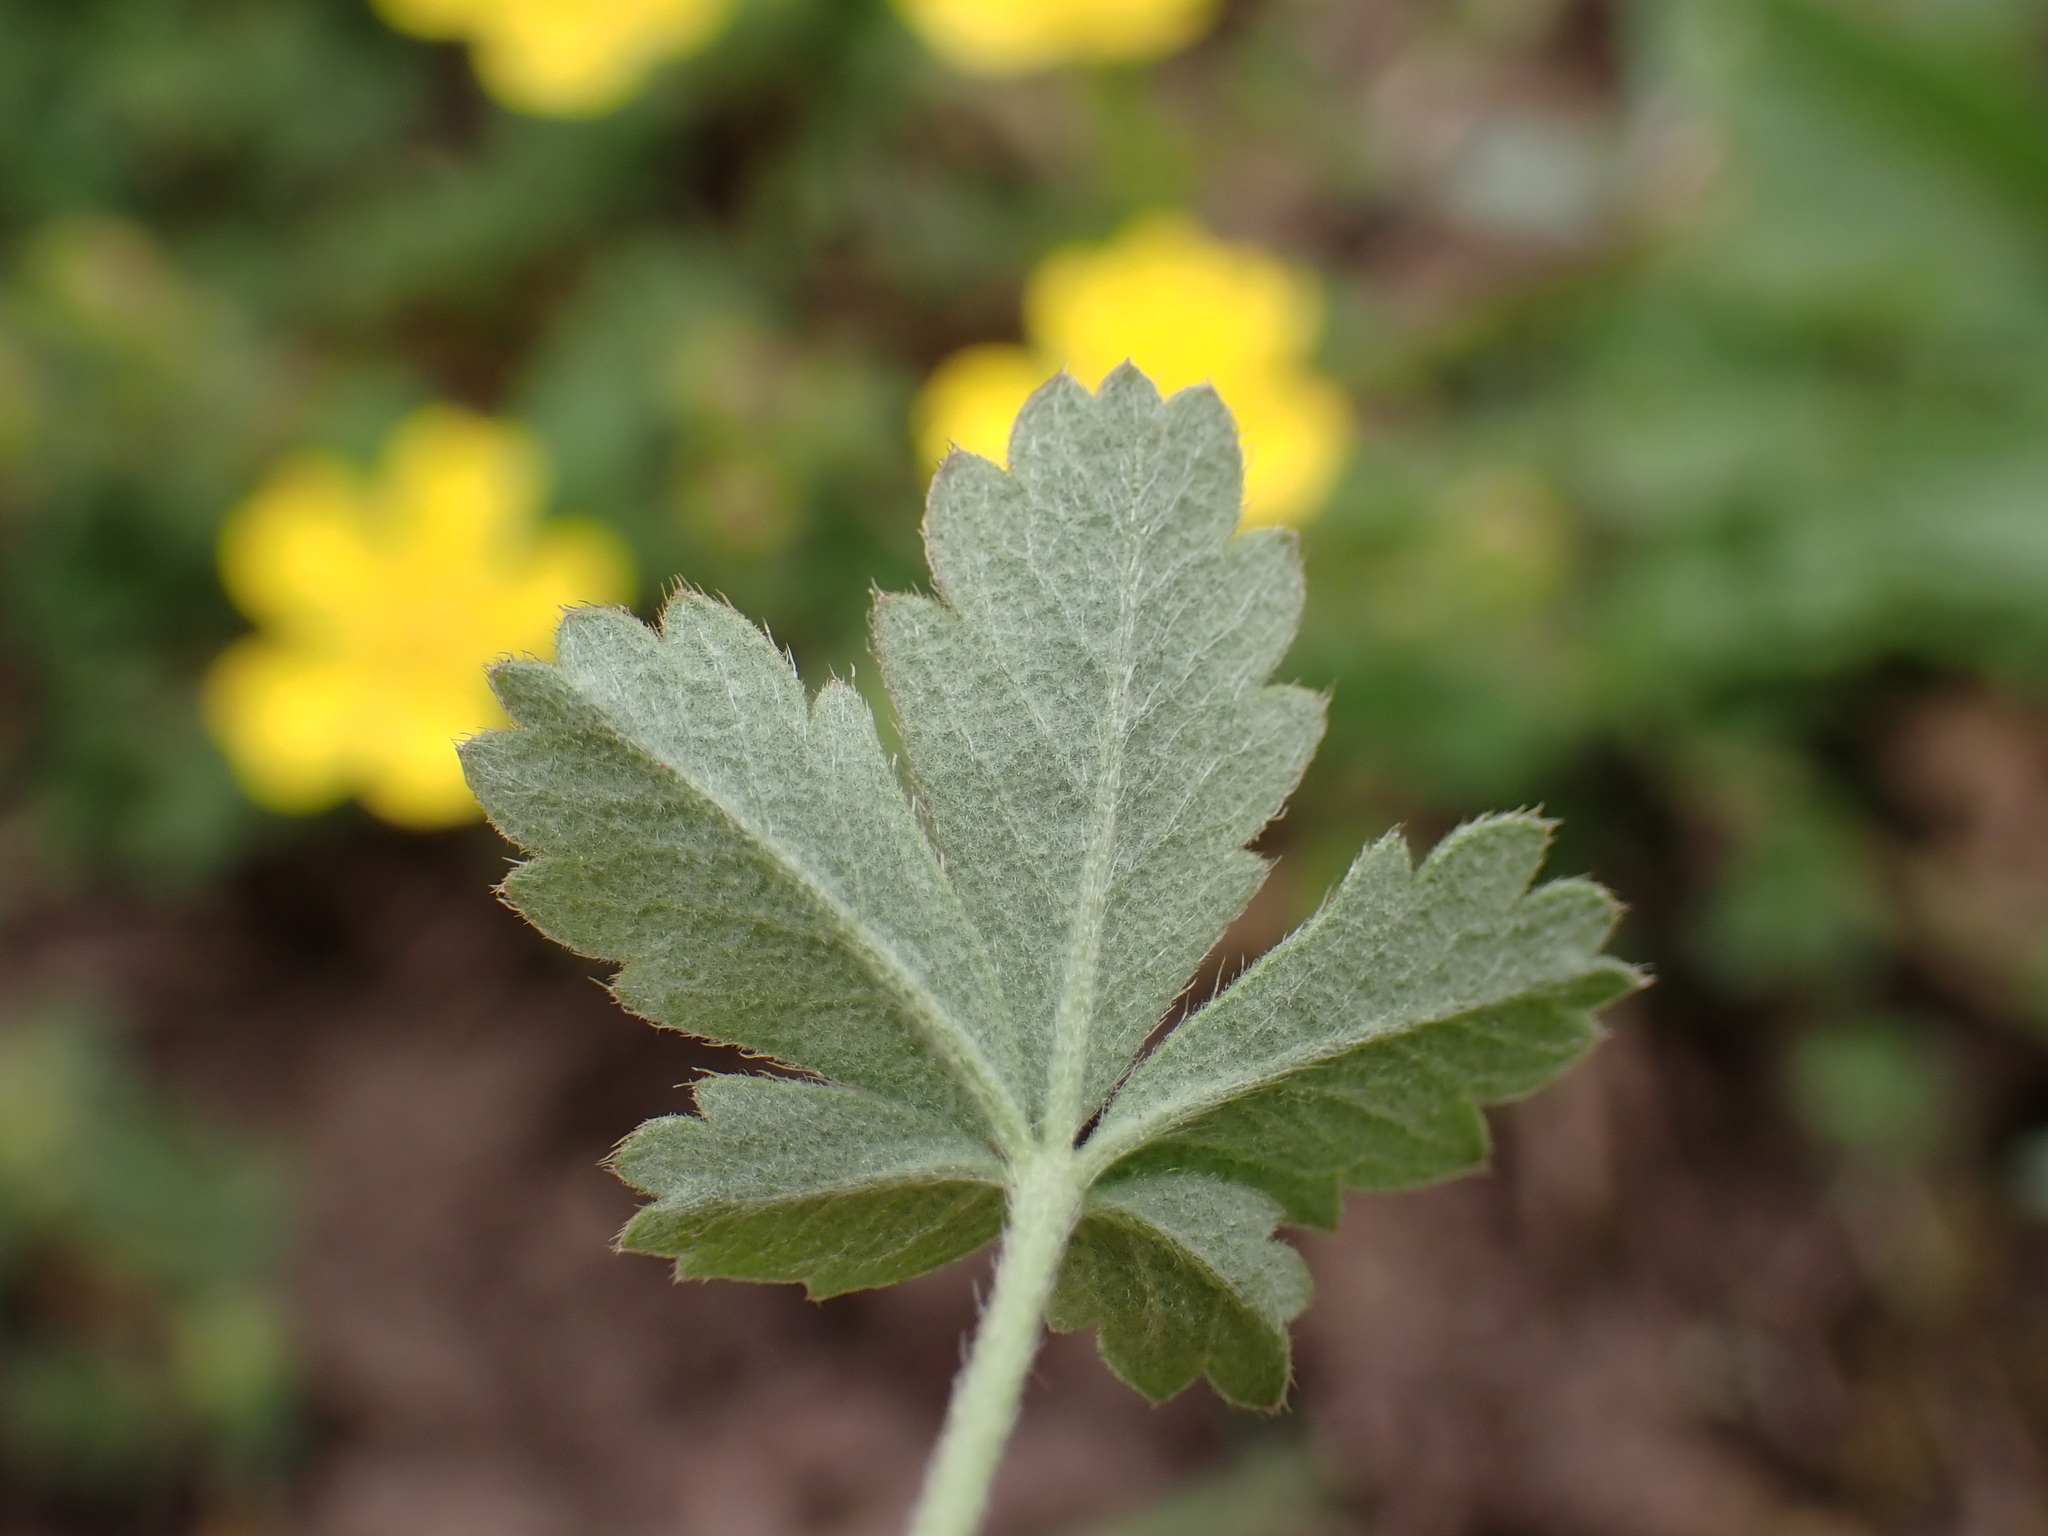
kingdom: Plantae
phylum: Tracheophyta
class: Magnoliopsida
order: Rosales
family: Rosaceae
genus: Potentilla
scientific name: Potentilla incana
